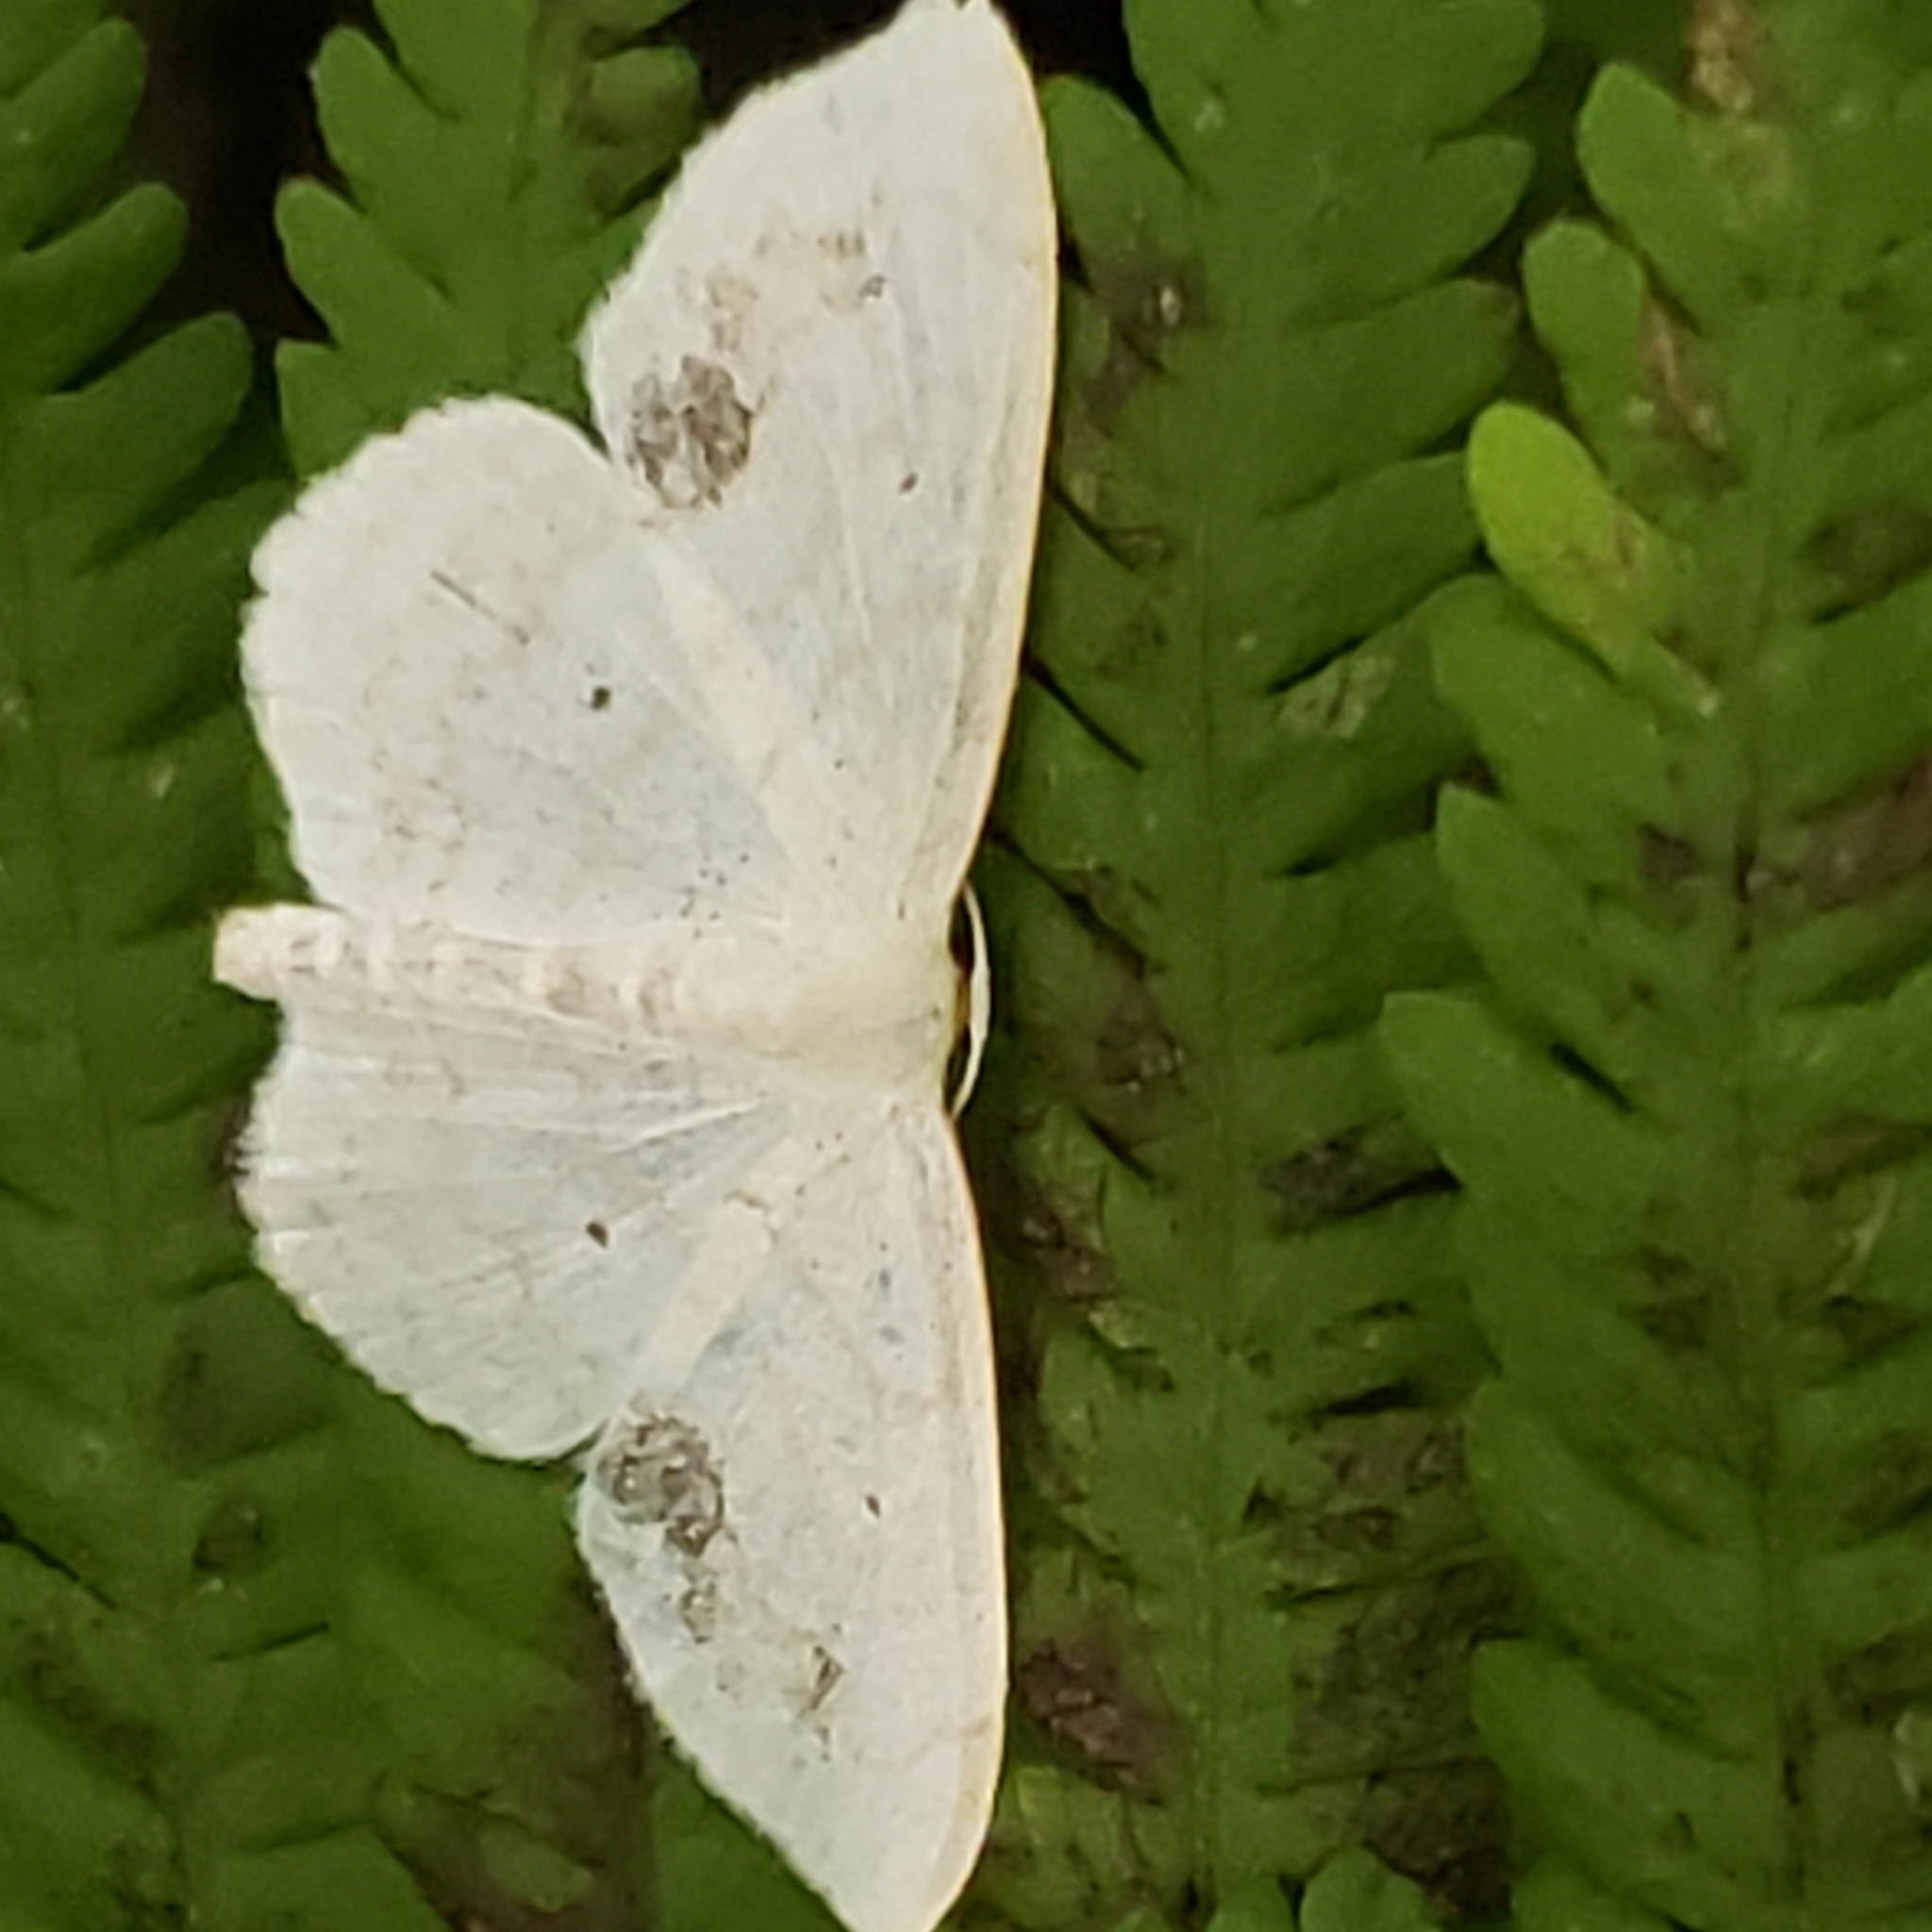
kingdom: Animalia
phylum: Arthropoda
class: Insecta
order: Lepidoptera
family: Geometridae
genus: Scopula
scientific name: Scopula limboundata
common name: Large lace border
